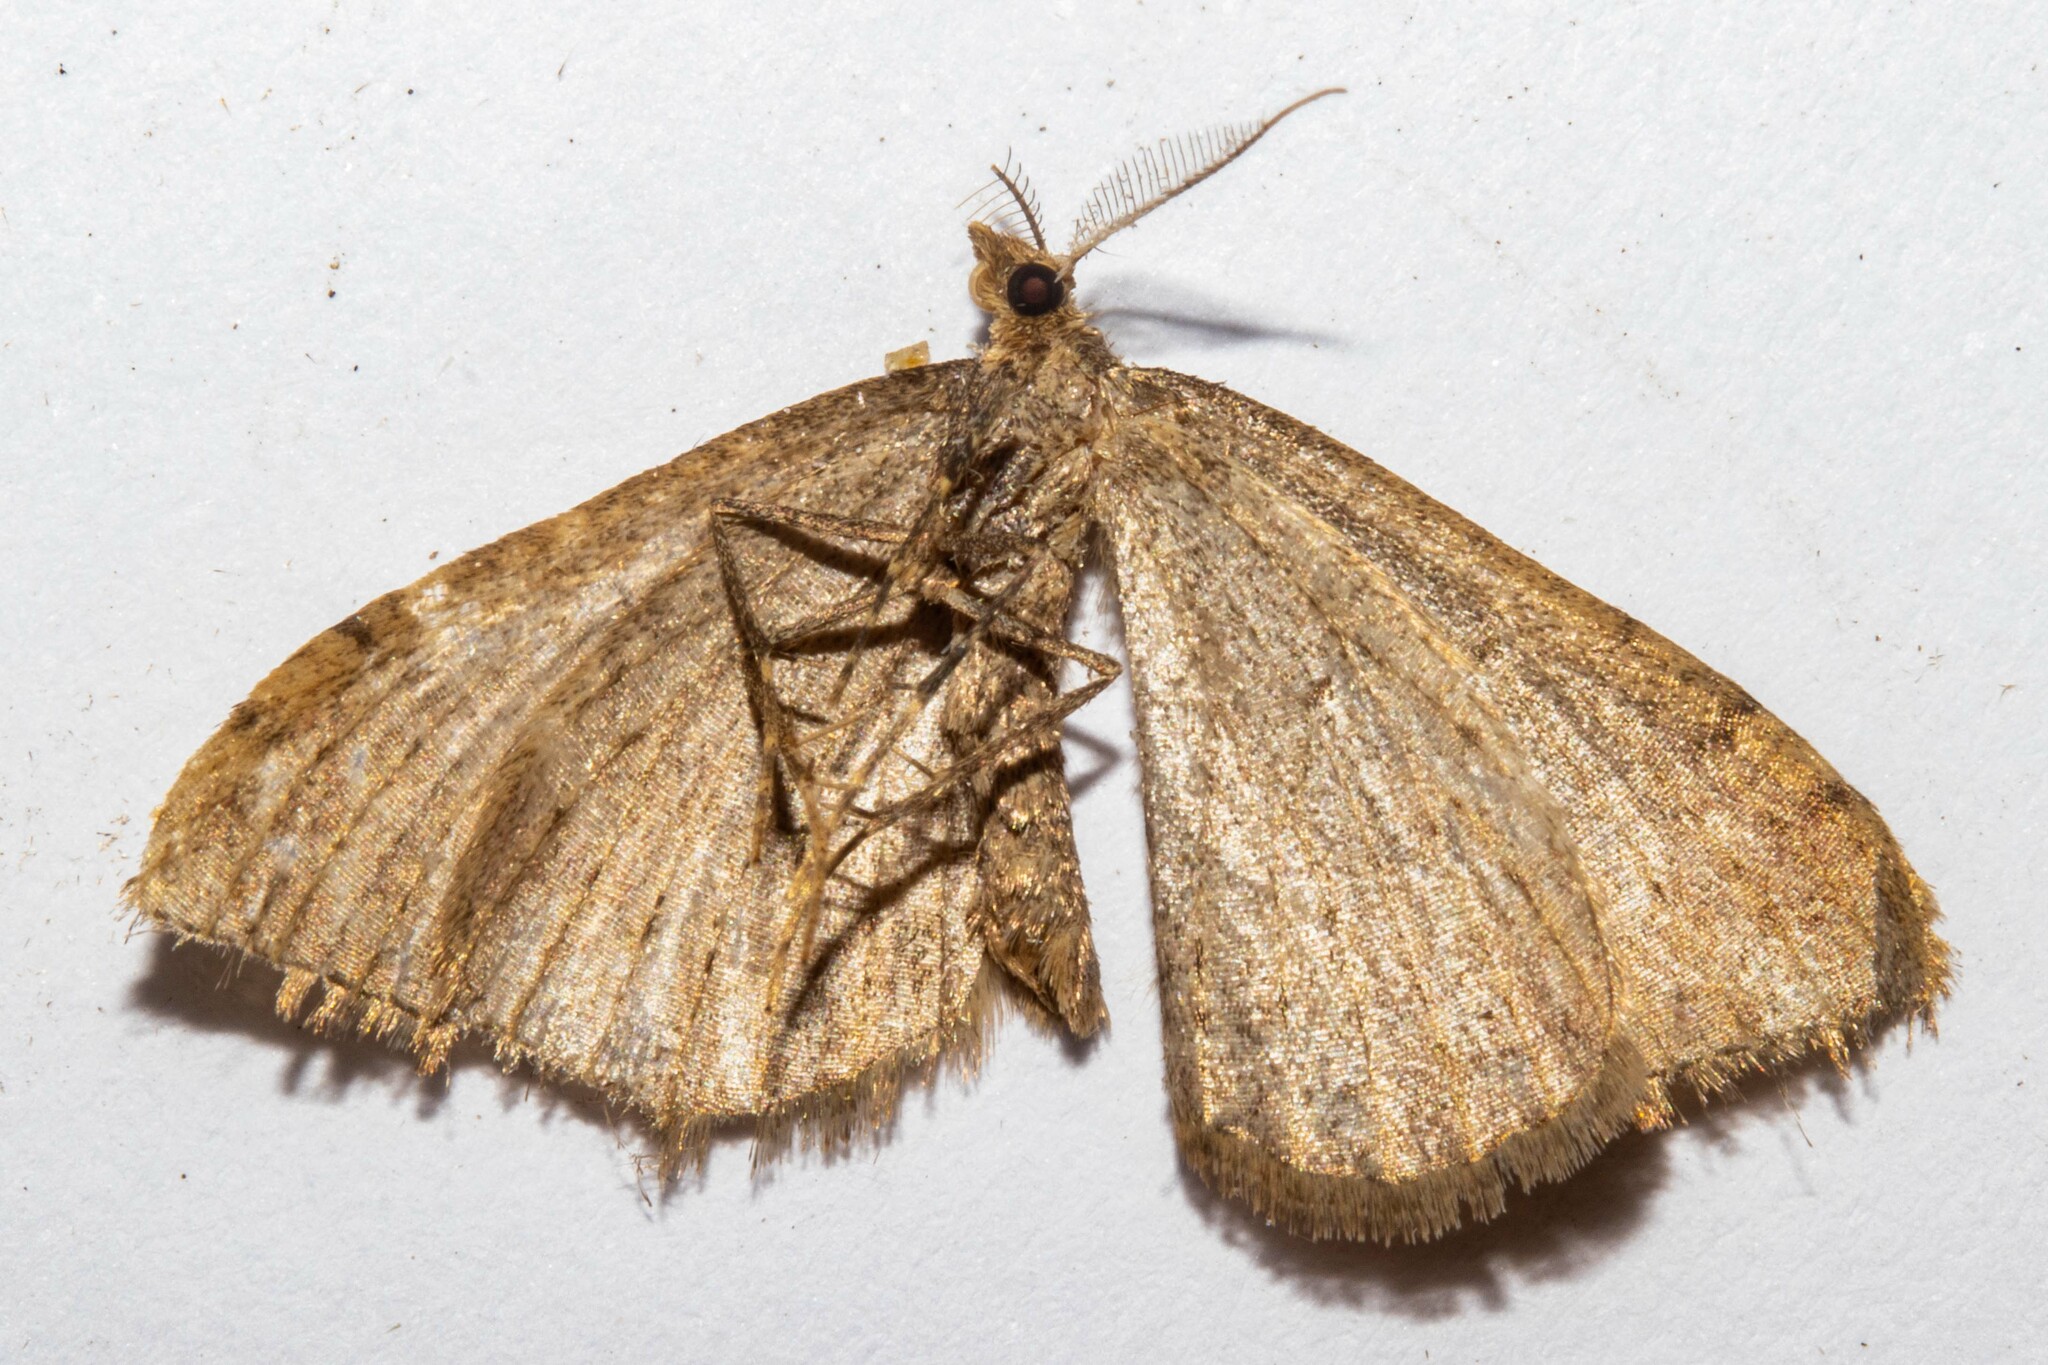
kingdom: Animalia
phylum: Arthropoda
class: Insecta
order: Lepidoptera
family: Geometridae
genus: Epyaxa
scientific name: Epyaxa rosearia
